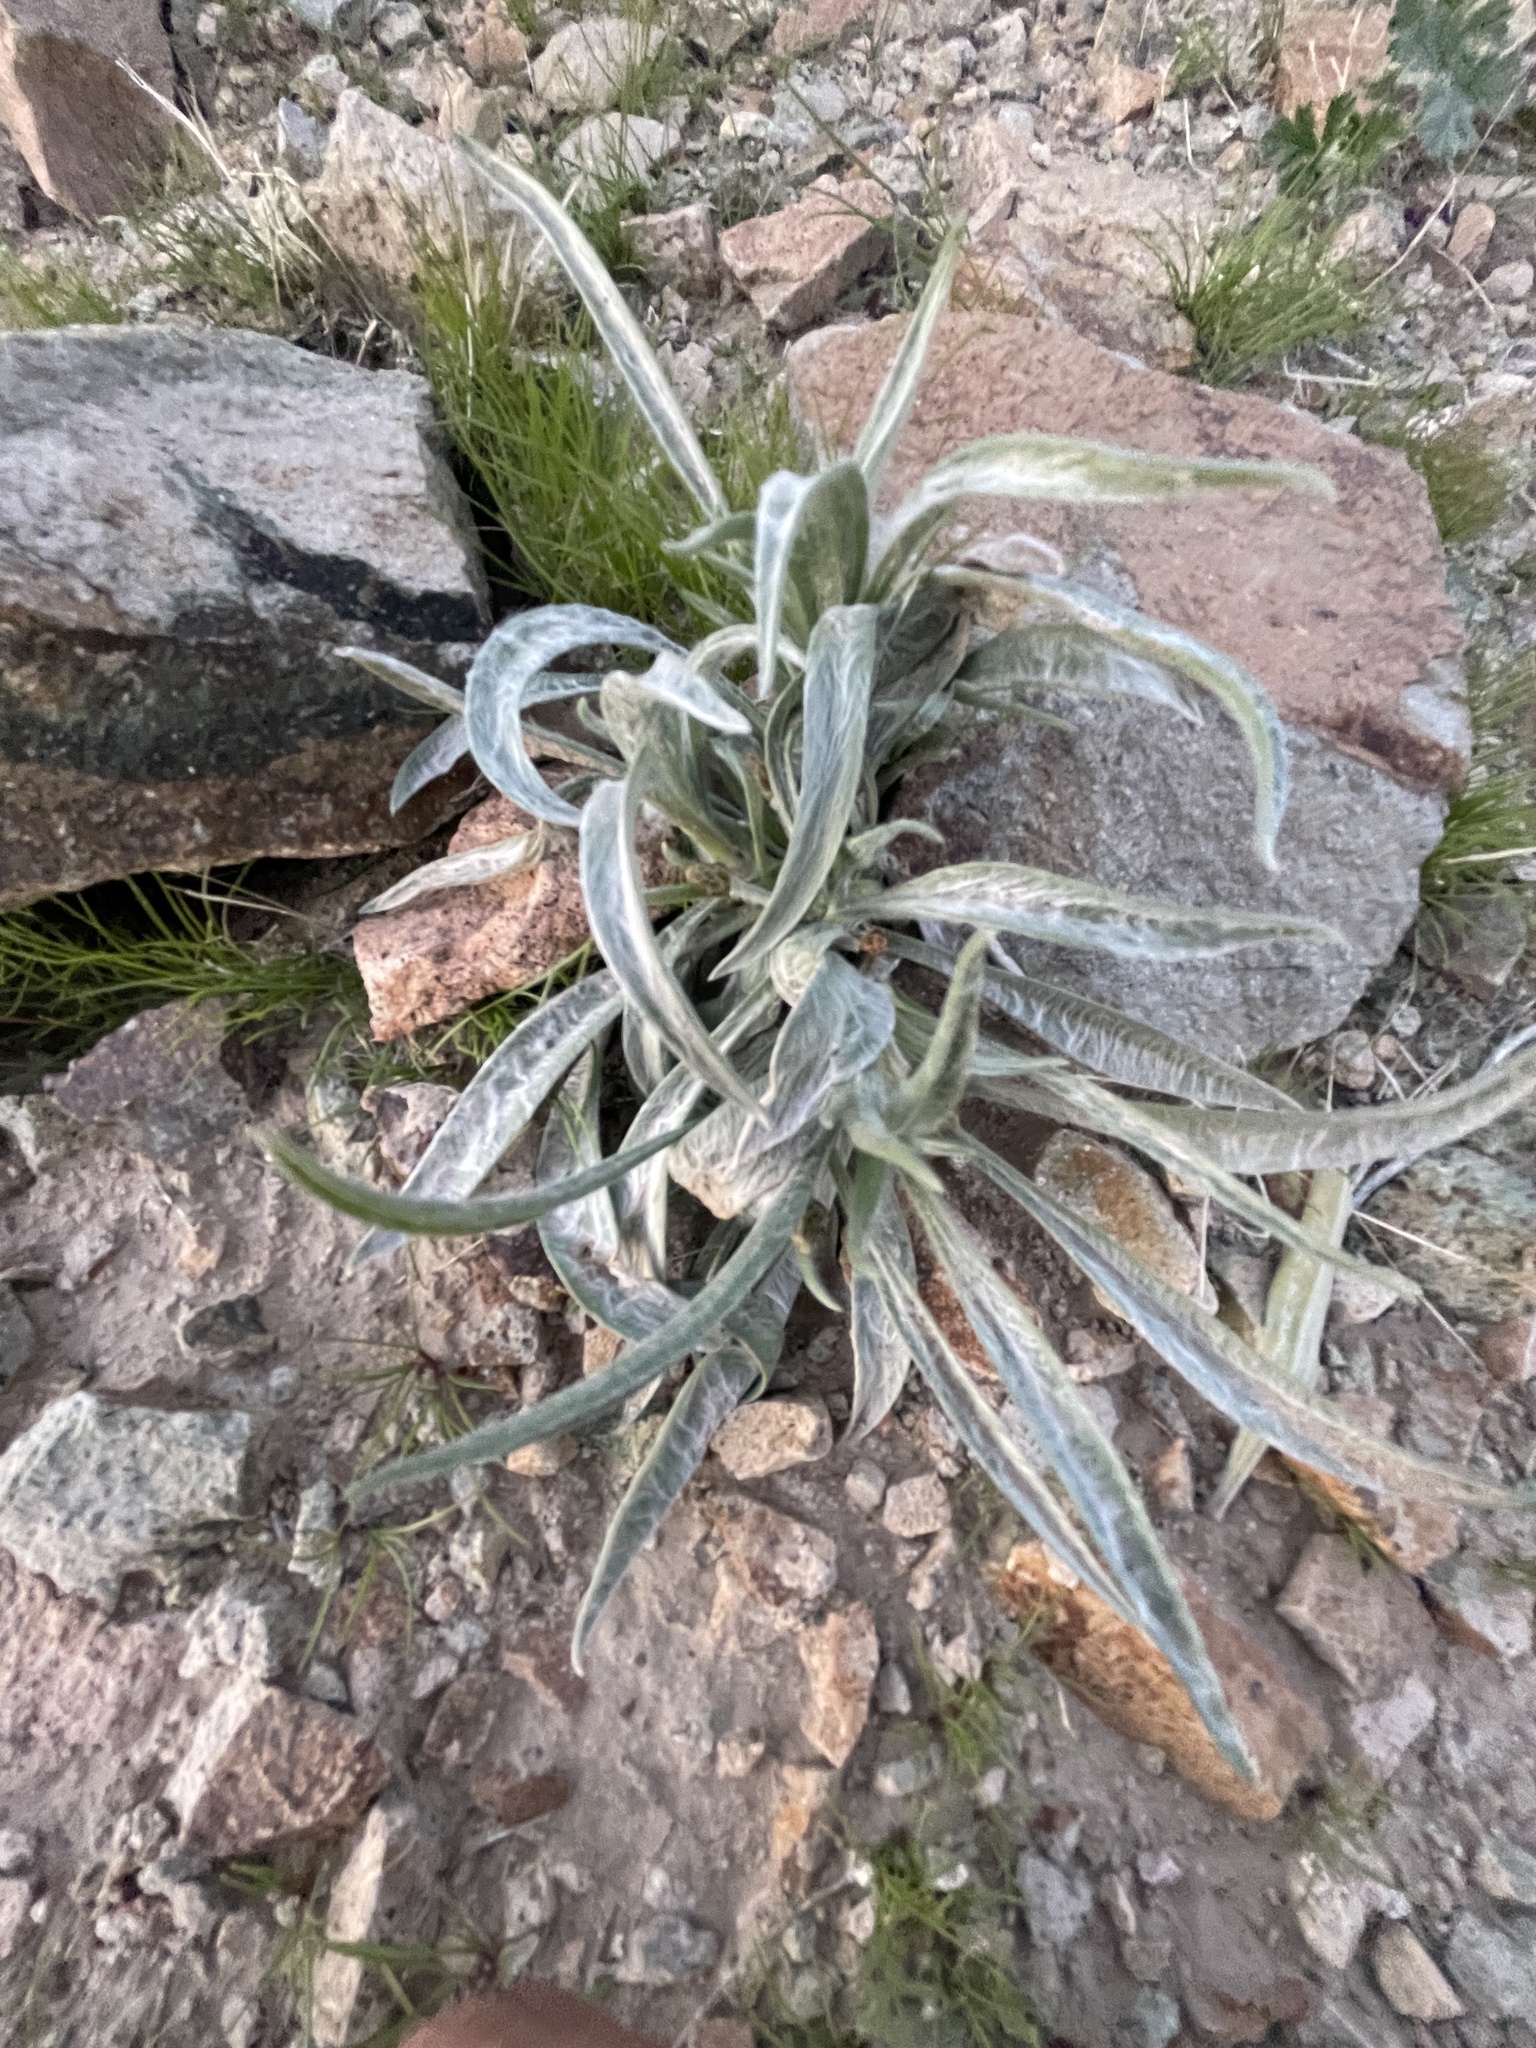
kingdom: Plantae
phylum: Tracheophyta
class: Magnoliopsida
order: Lamiales
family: Plantaginaceae
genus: Plantago
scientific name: Plantago ovata
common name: Blond plantain
